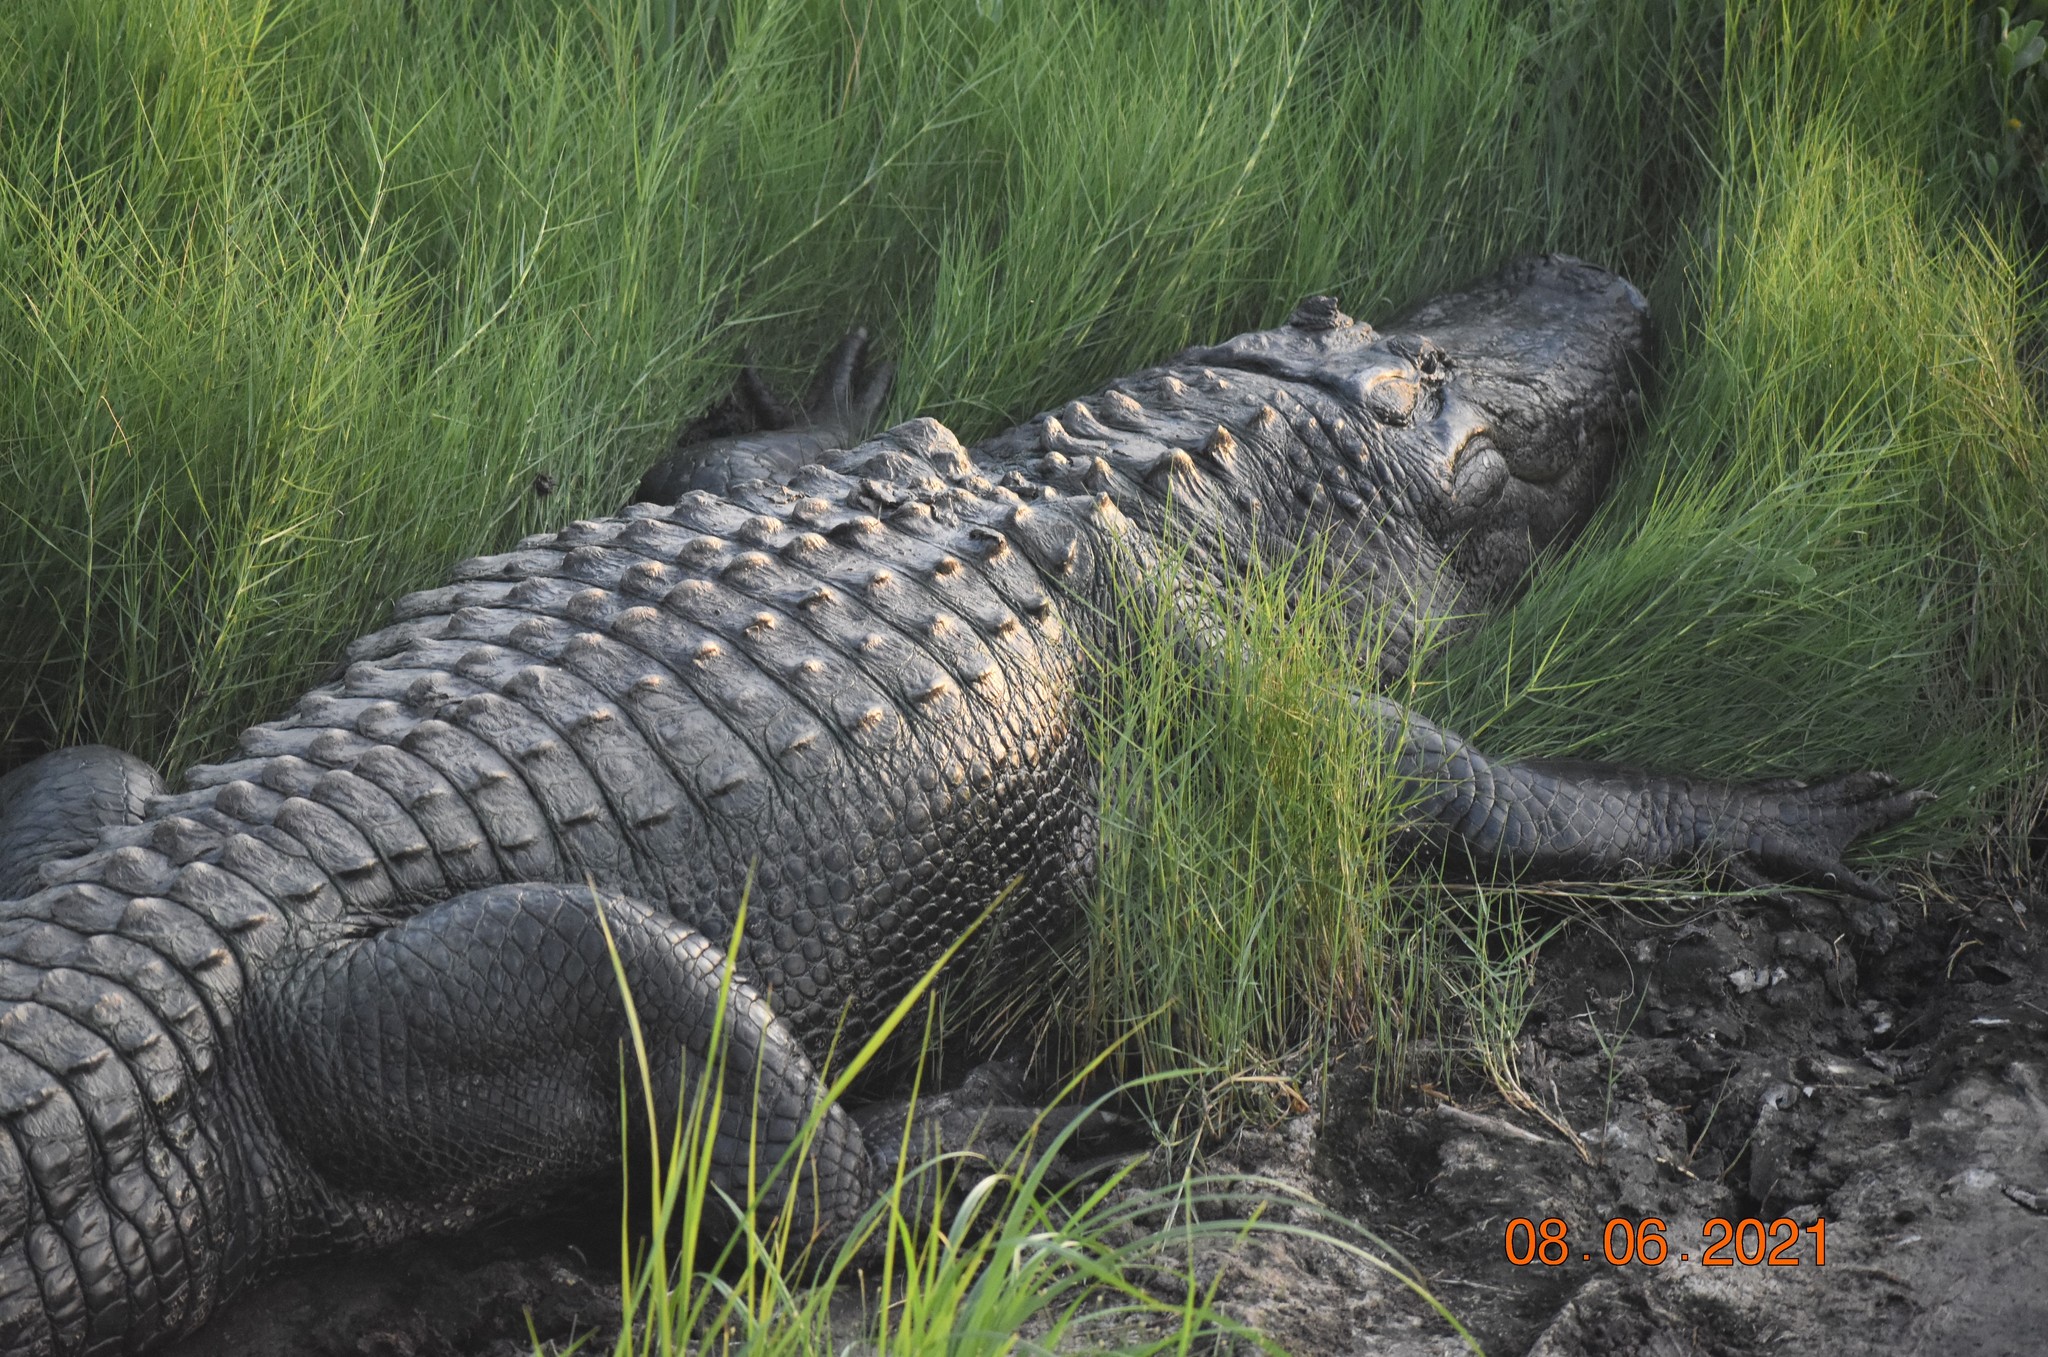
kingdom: Animalia
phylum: Chordata
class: Crocodylia
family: Alligatoridae
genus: Alligator
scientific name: Alligator mississippiensis
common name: American alligator
